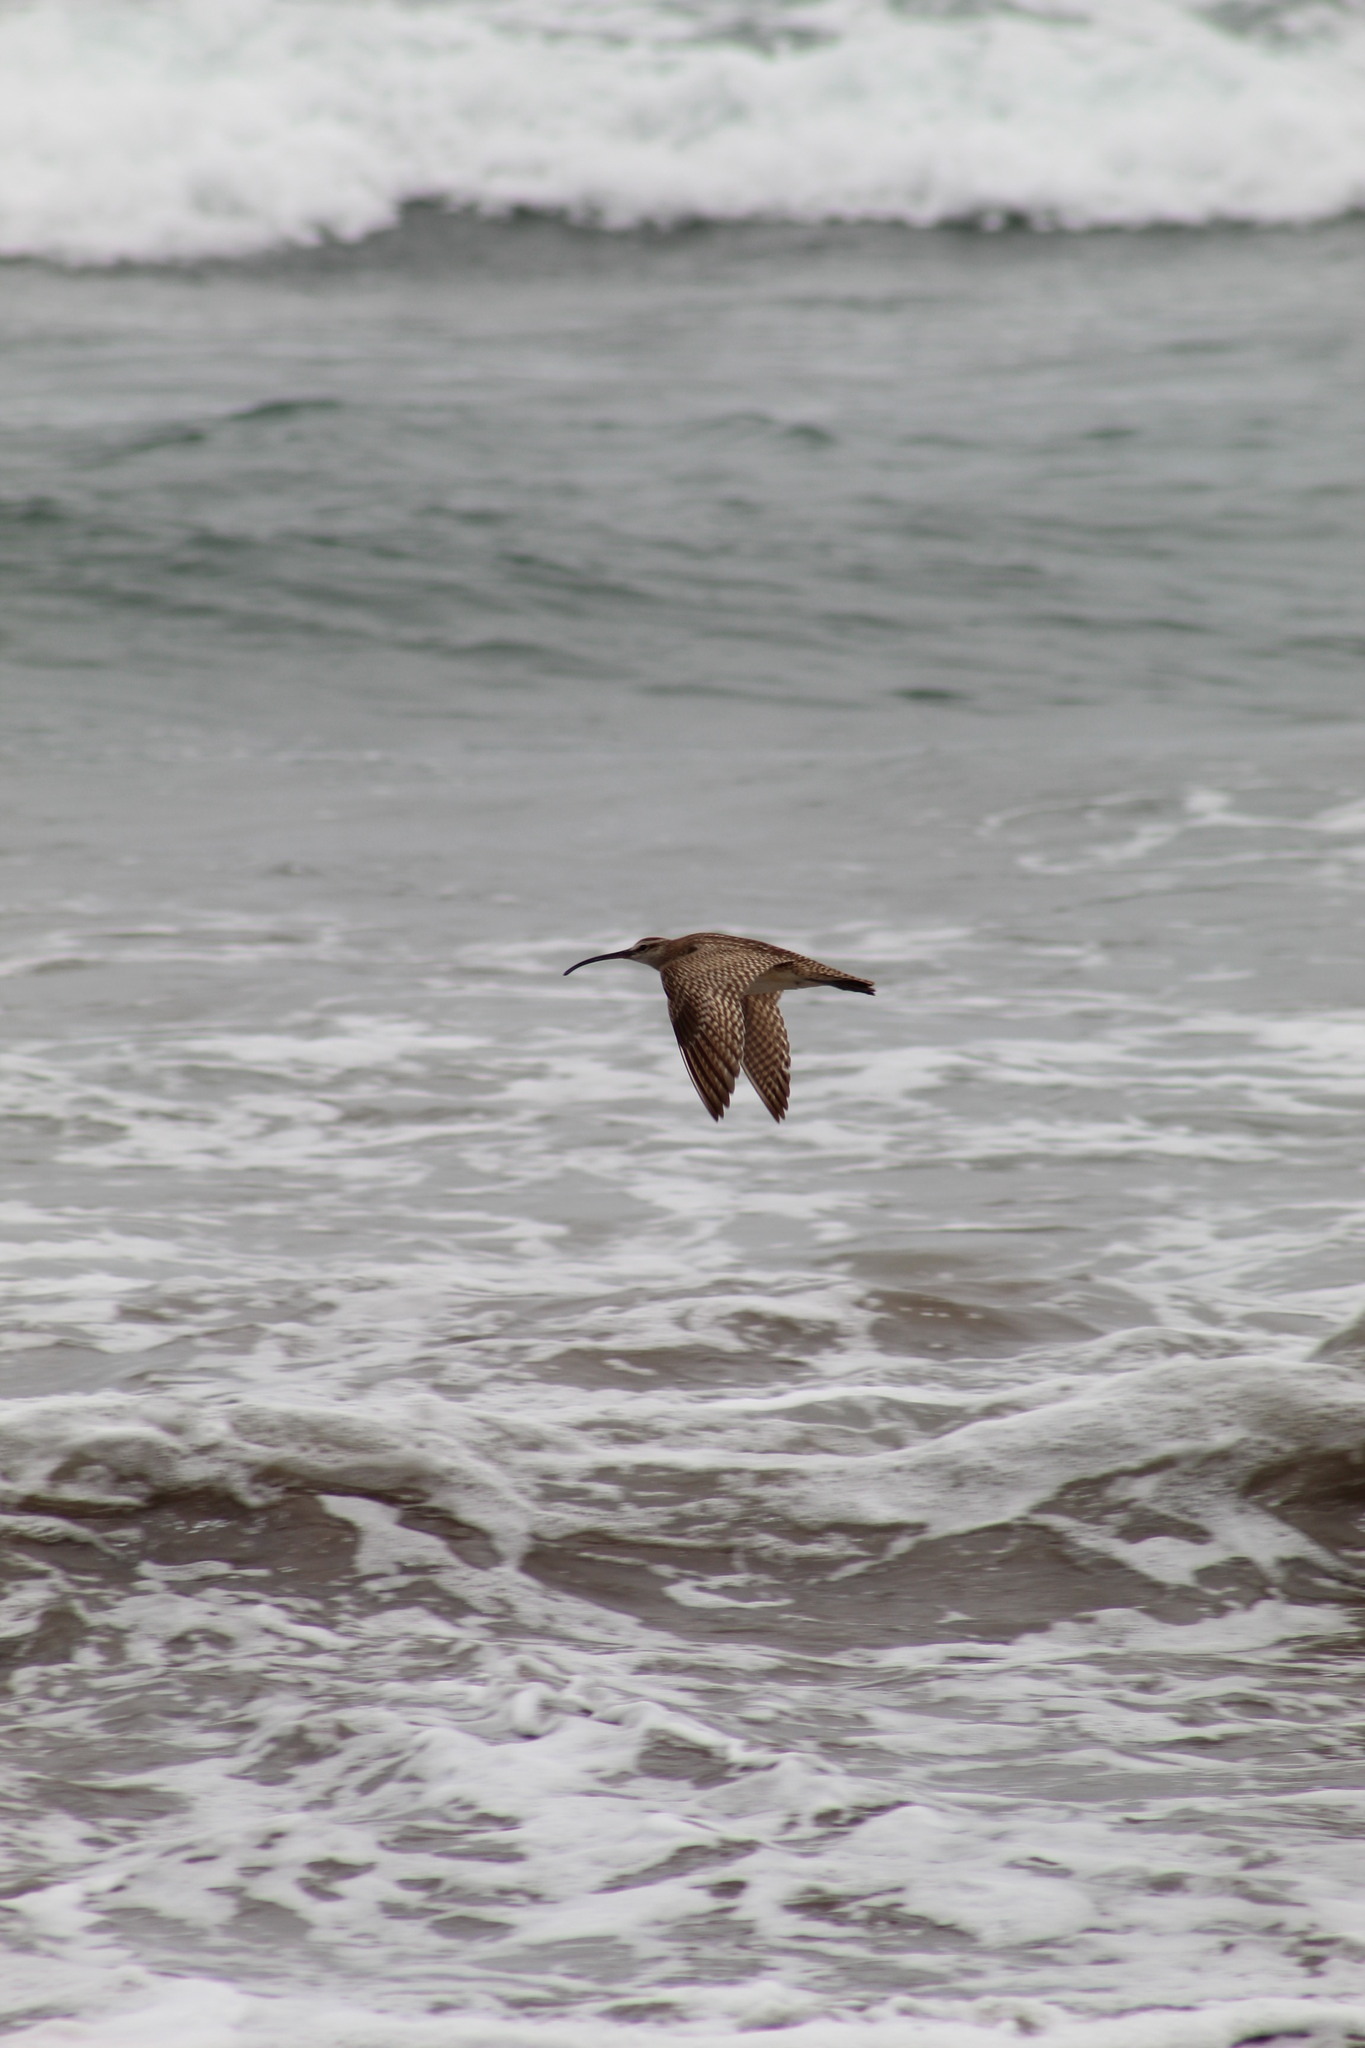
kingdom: Animalia
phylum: Chordata
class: Aves
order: Charadriiformes
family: Scolopacidae
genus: Numenius
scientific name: Numenius phaeopus
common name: Whimbrel
